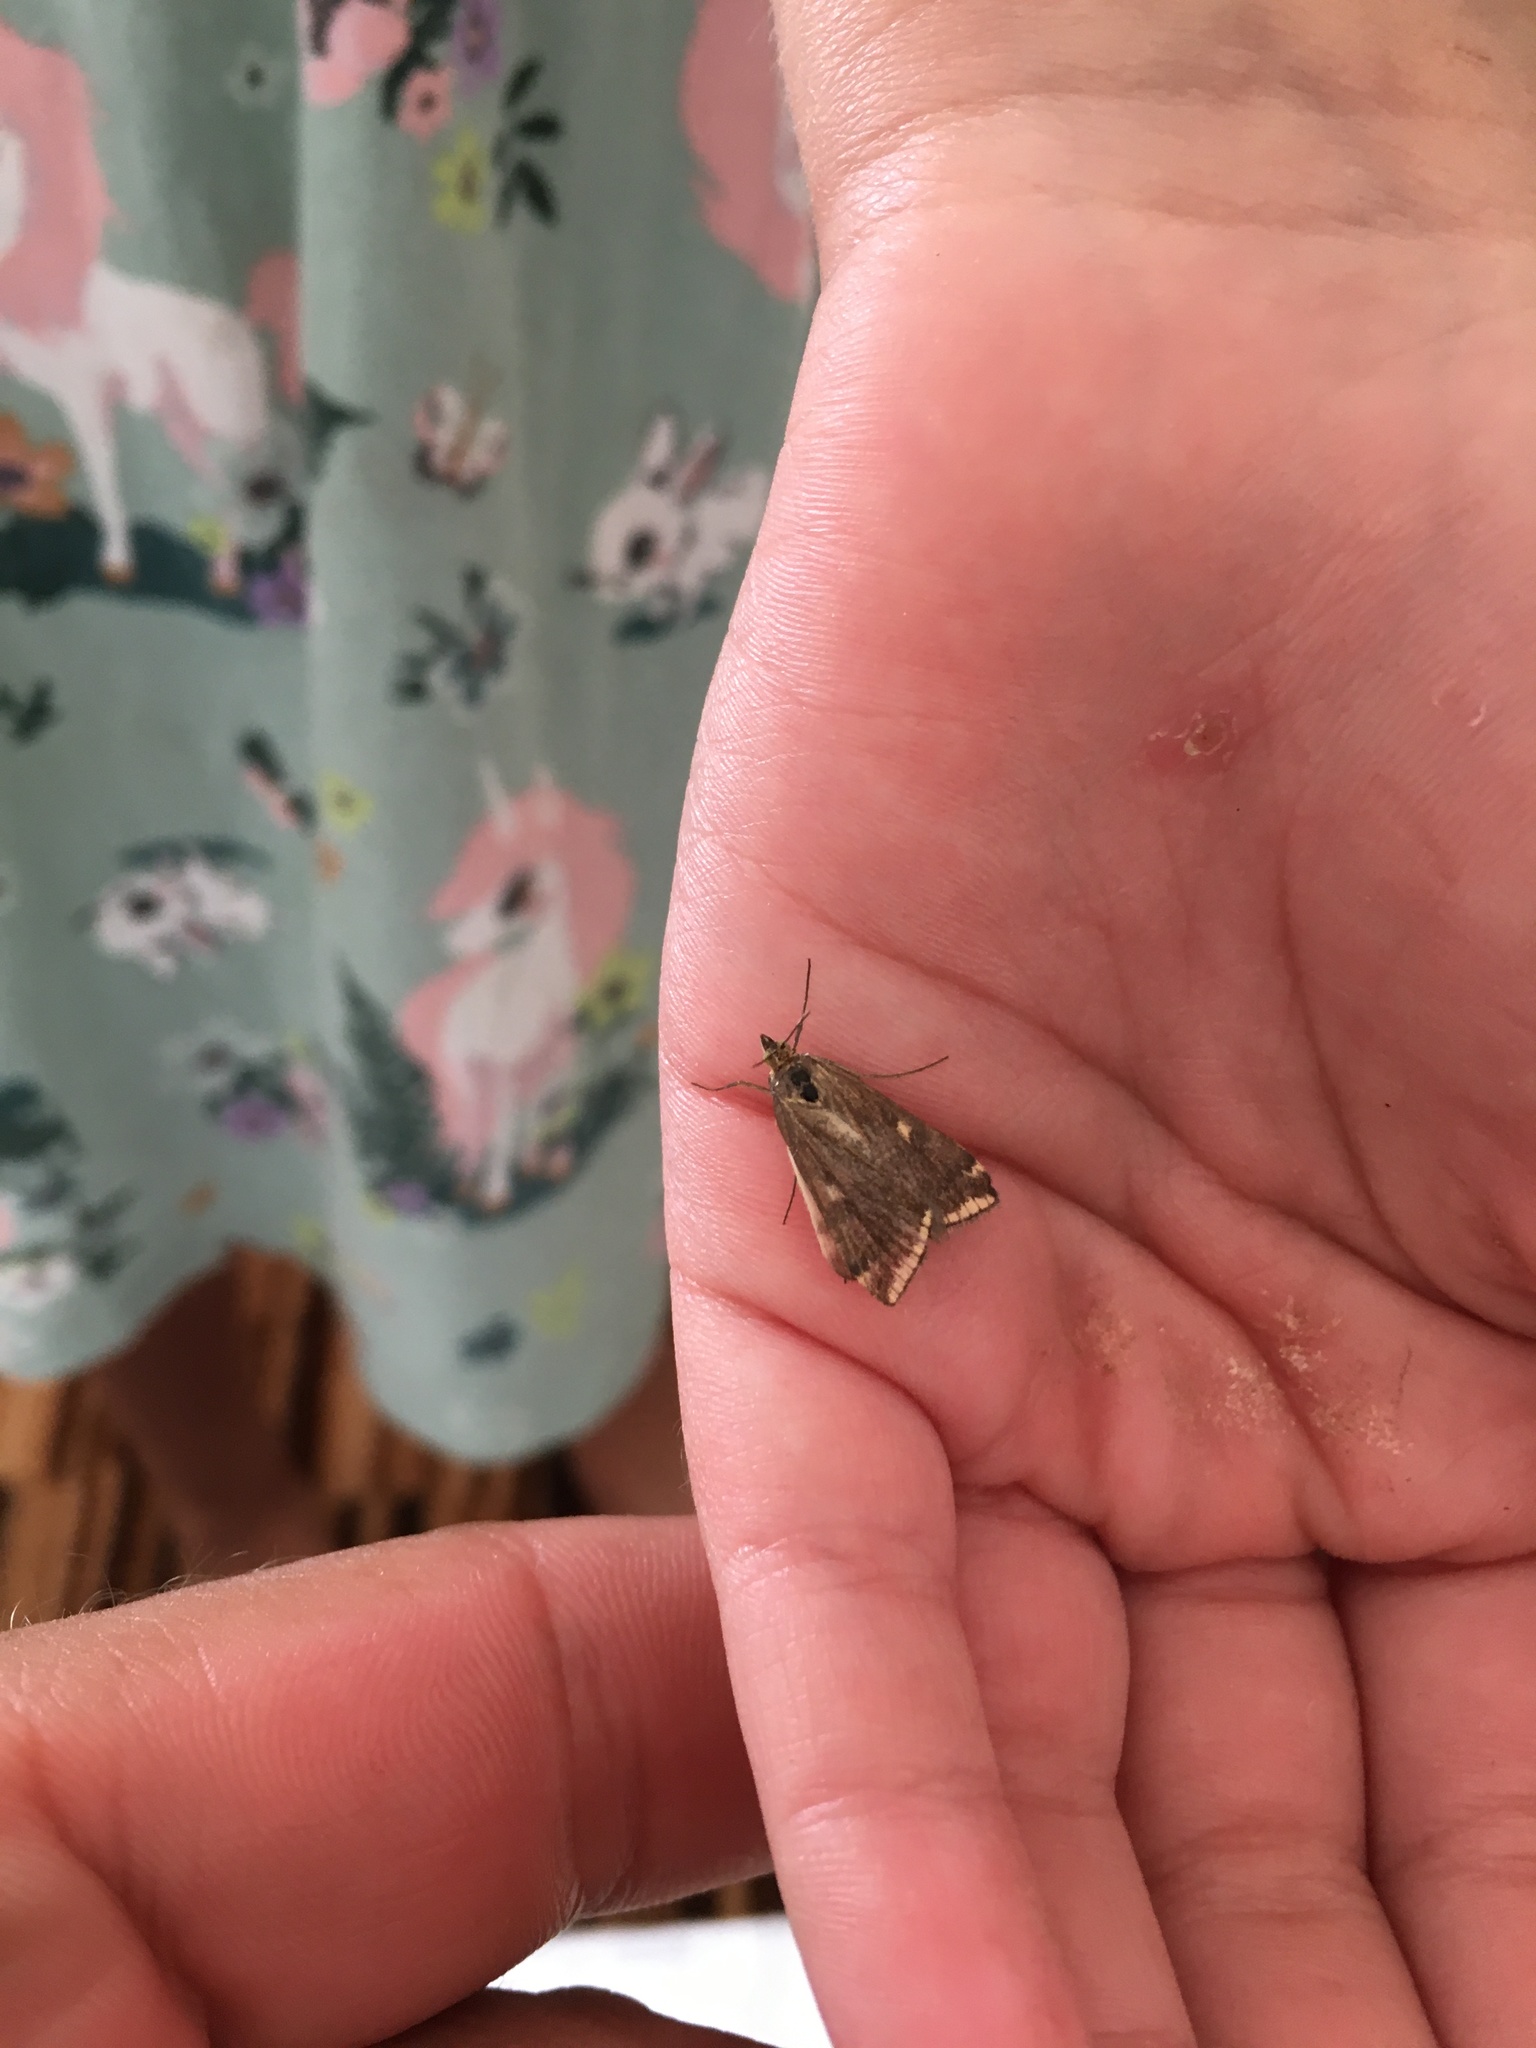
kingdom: Animalia
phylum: Arthropoda
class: Insecta
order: Lepidoptera
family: Crambidae
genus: Loxostege
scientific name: Loxostege sticticalis
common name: Crambid moth
